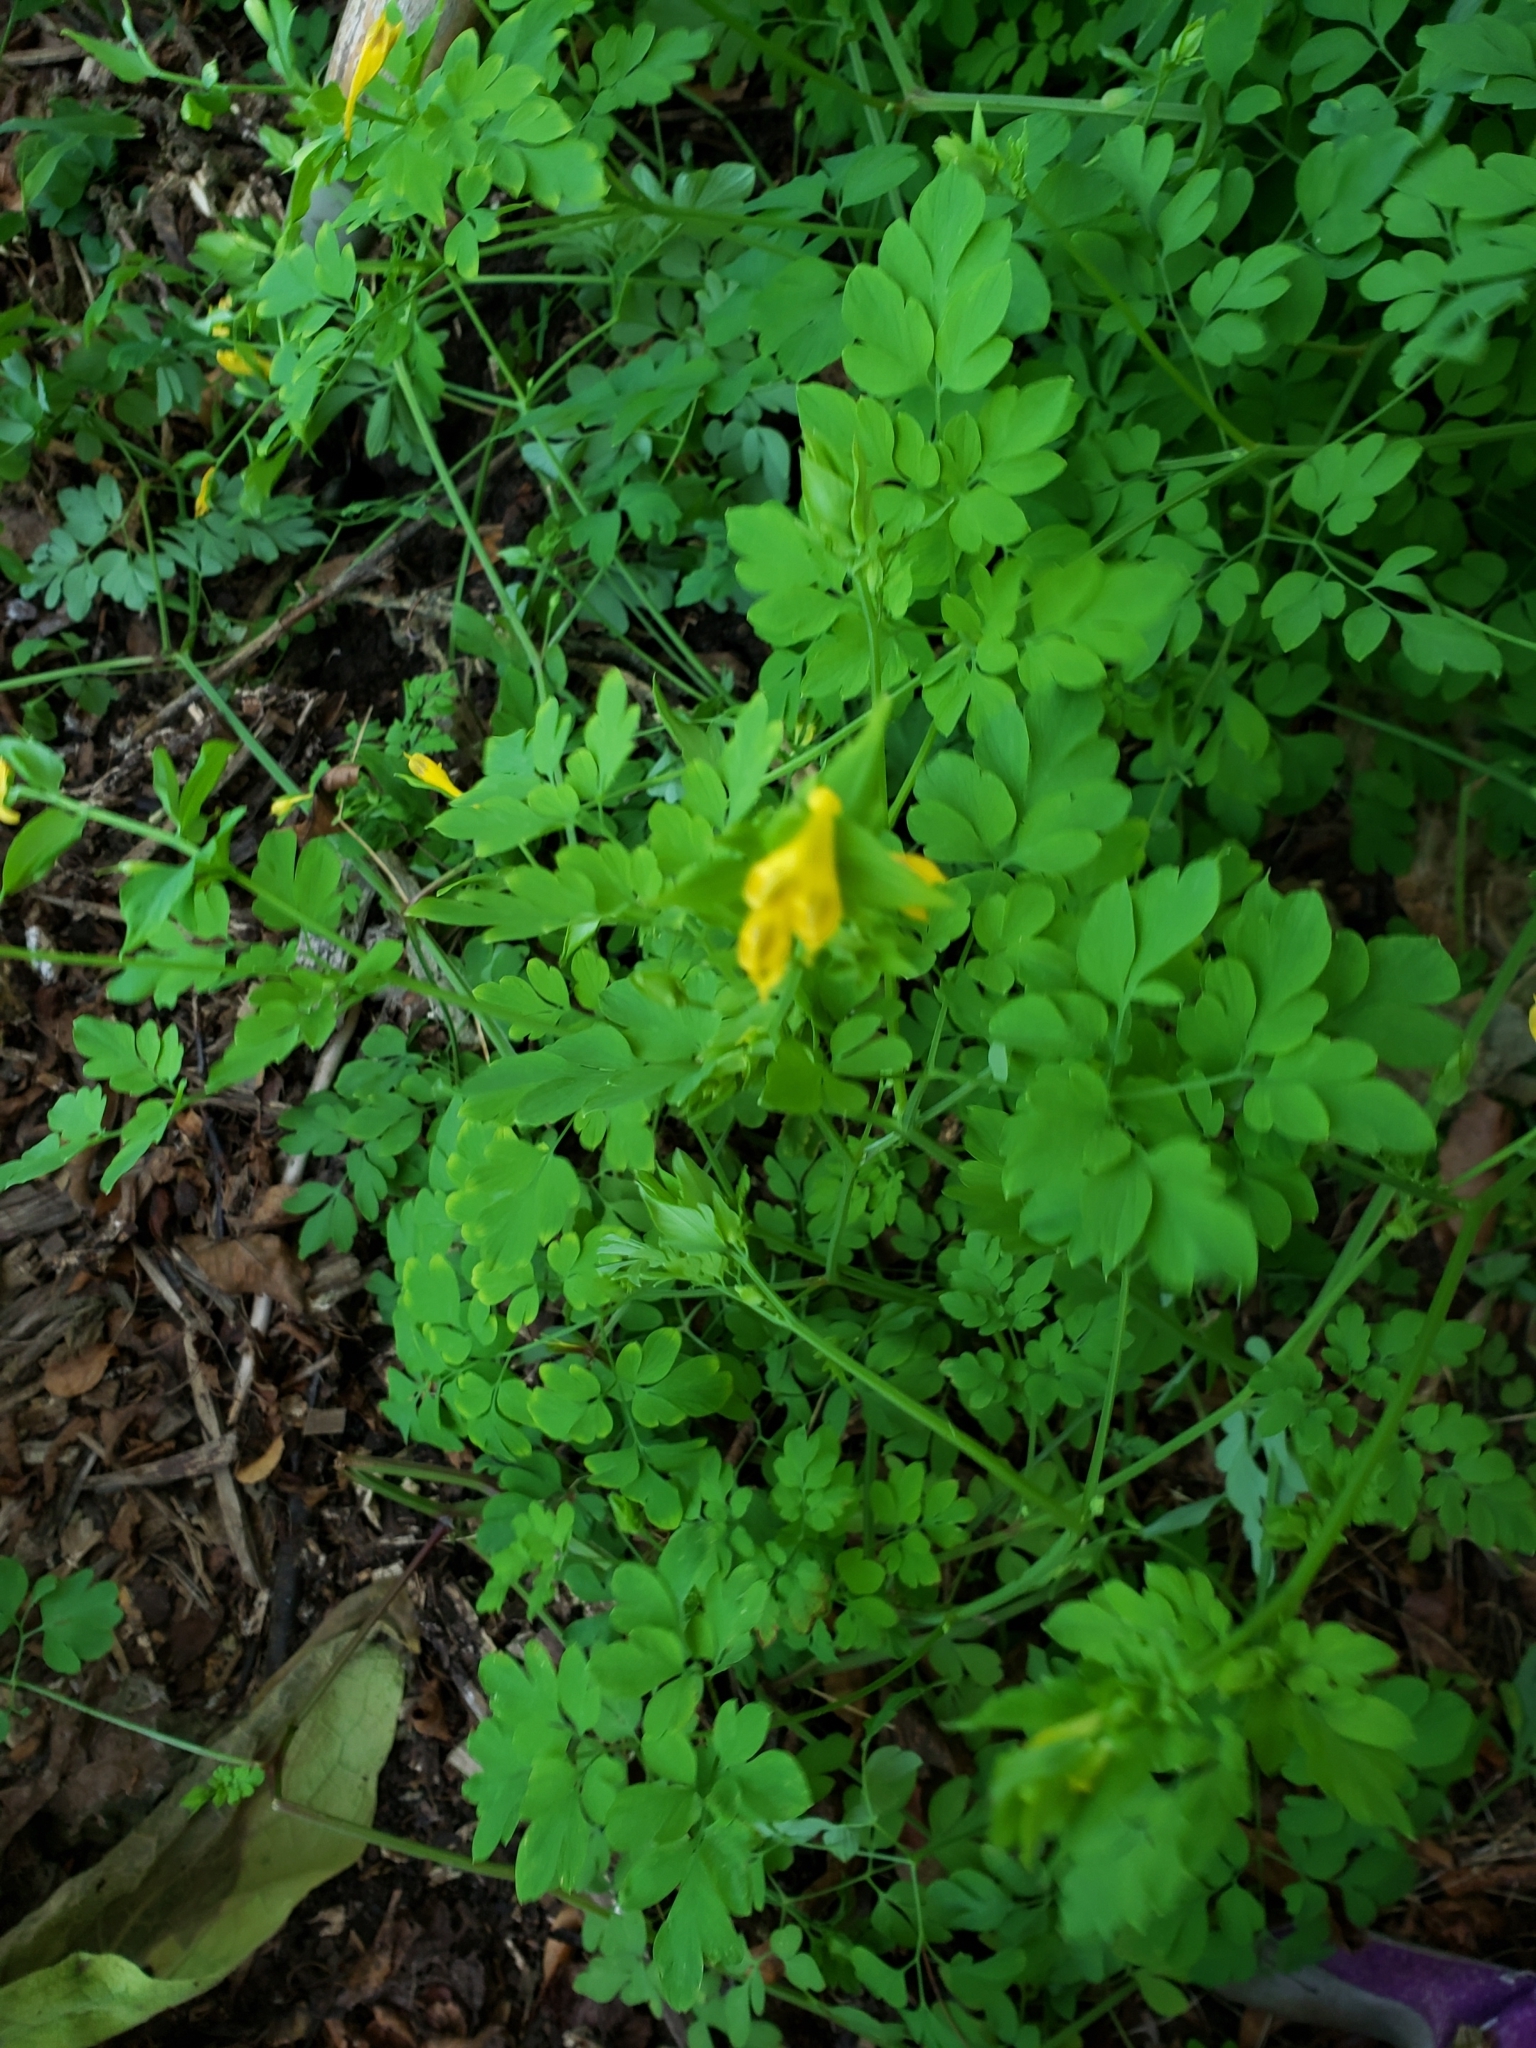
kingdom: Plantae
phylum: Tracheophyta
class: Magnoliopsida
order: Ranunculales
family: Papaveraceae
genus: Pseudofumaria
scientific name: Pseudofumaria lutea
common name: Yellow corydalis
